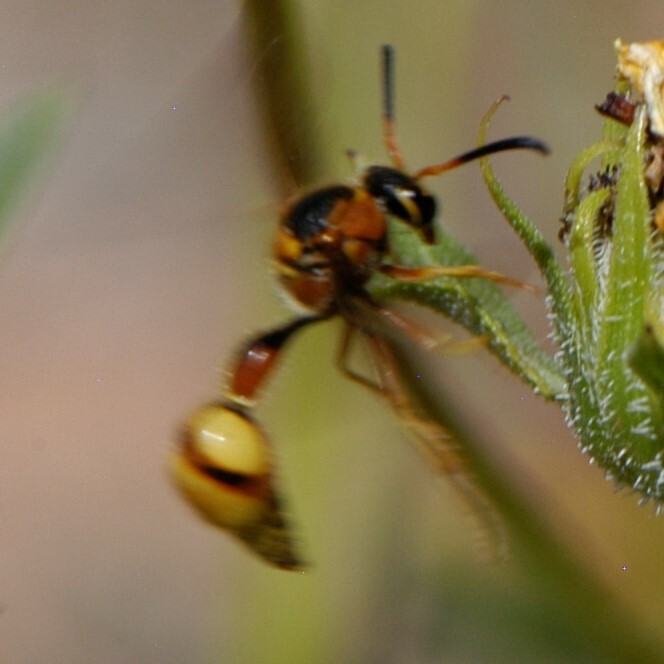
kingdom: Animalia
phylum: Arthropoda
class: Insecta
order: Hymenoptera
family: Vespidae
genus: Eumenes
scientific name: Eumenes bollii
